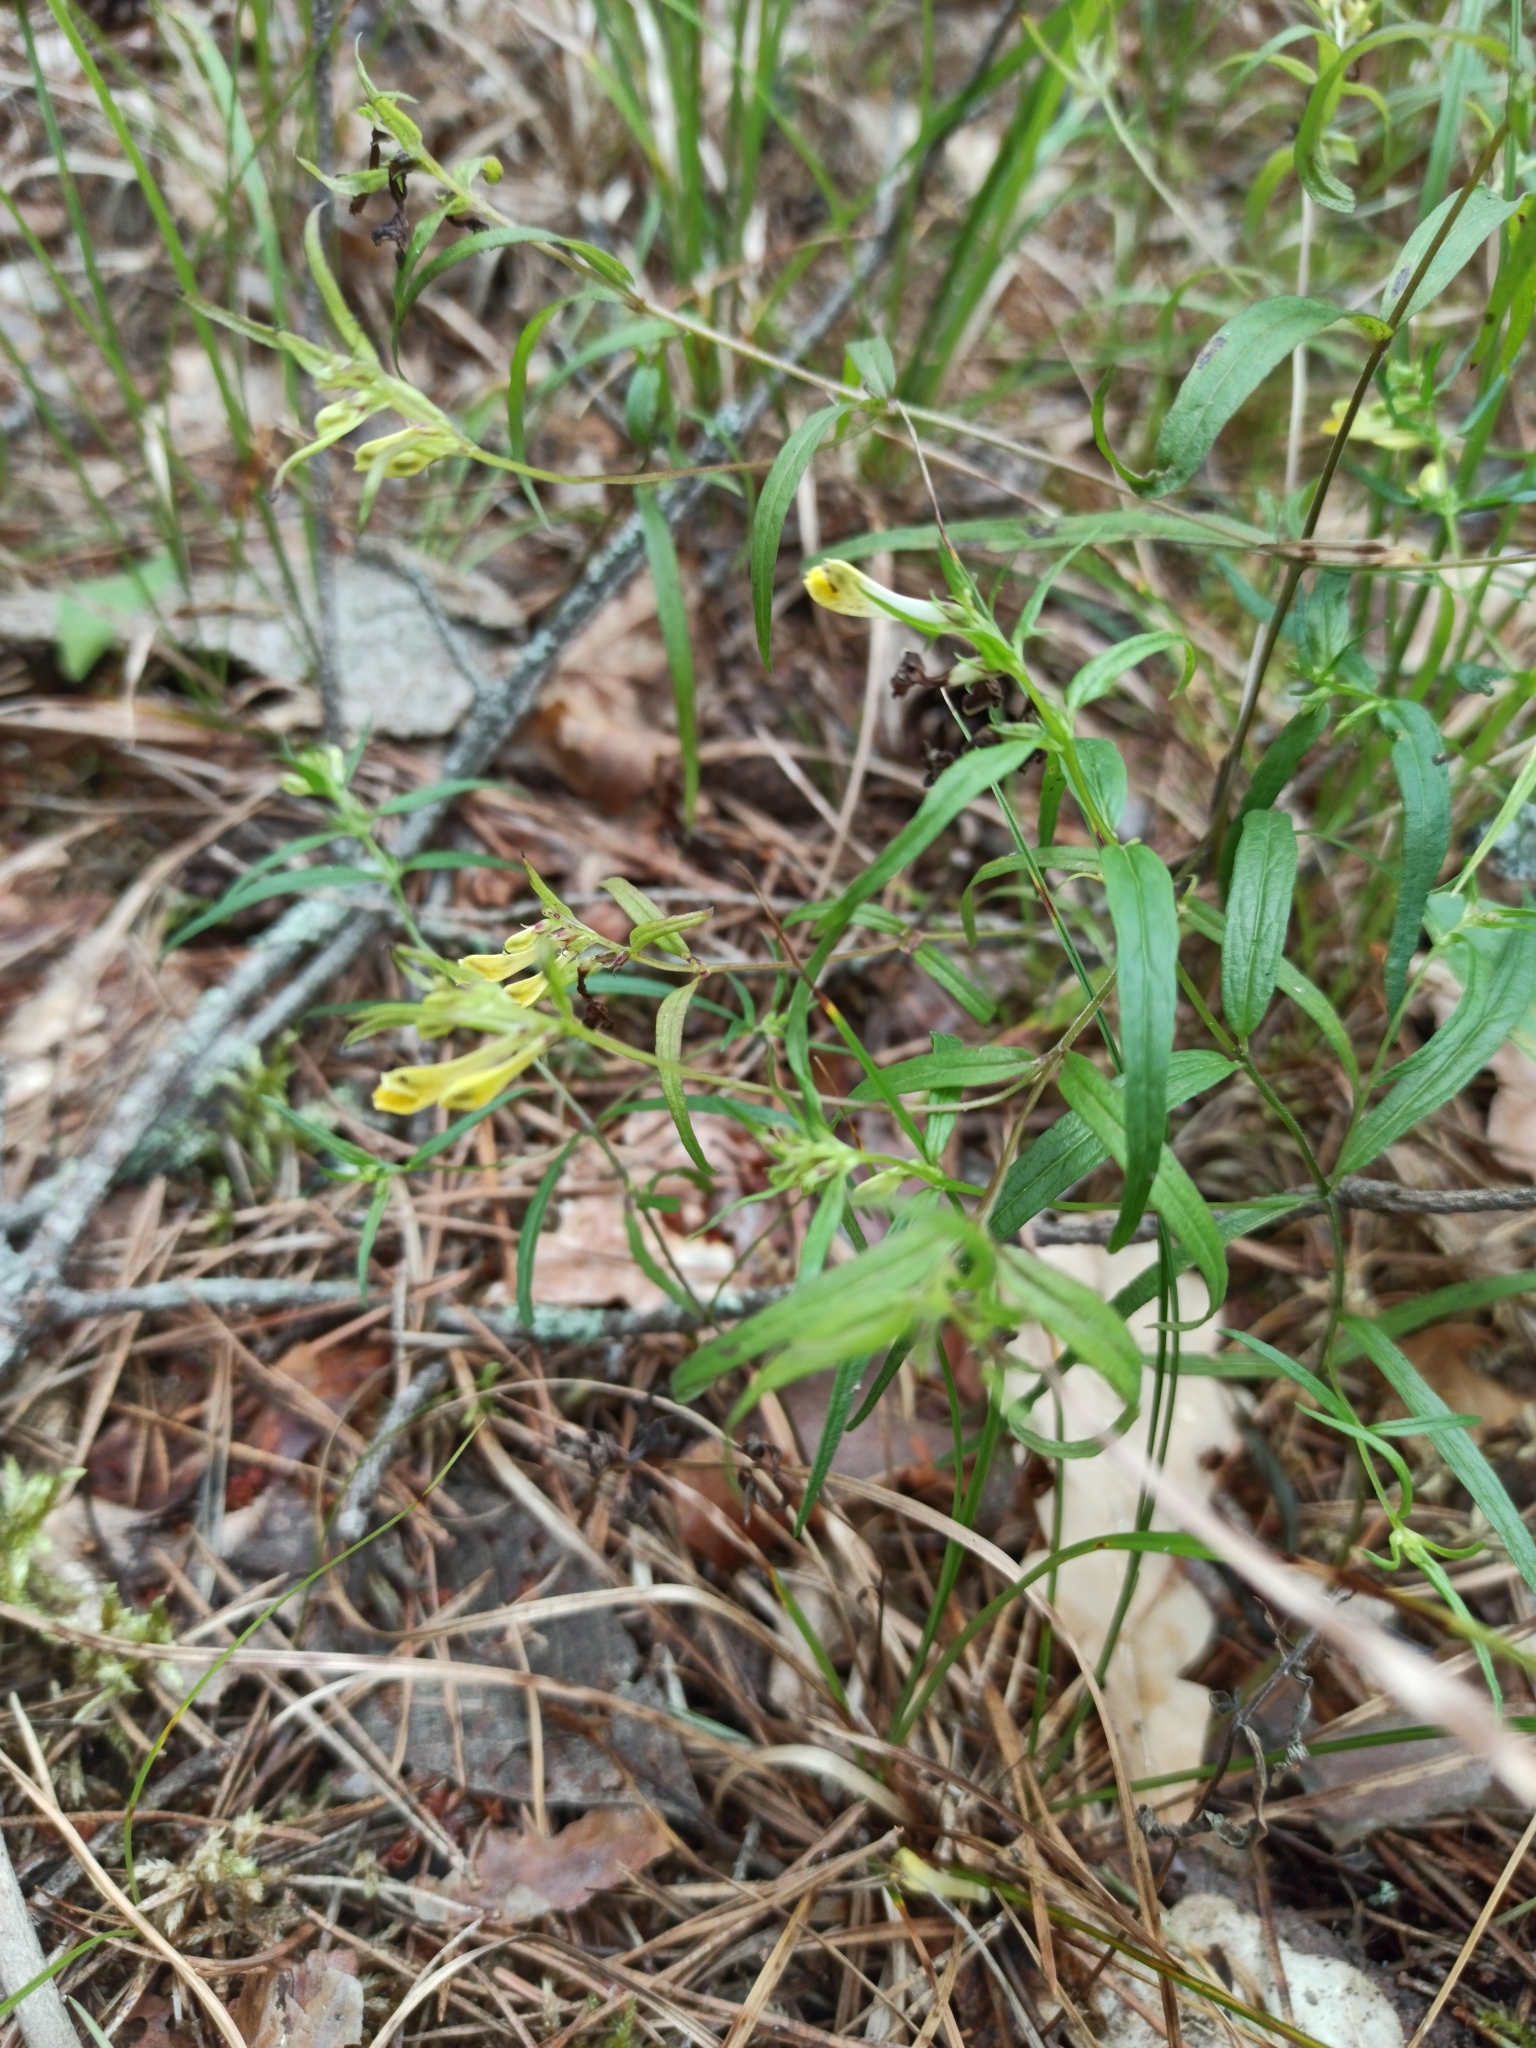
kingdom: Plantae
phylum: Tracheophyta
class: Magnoliopsida
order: Lamiales
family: Orobanchaceae
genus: Melampyrum
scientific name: Melampyrum pratense
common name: Common cow-wheat
